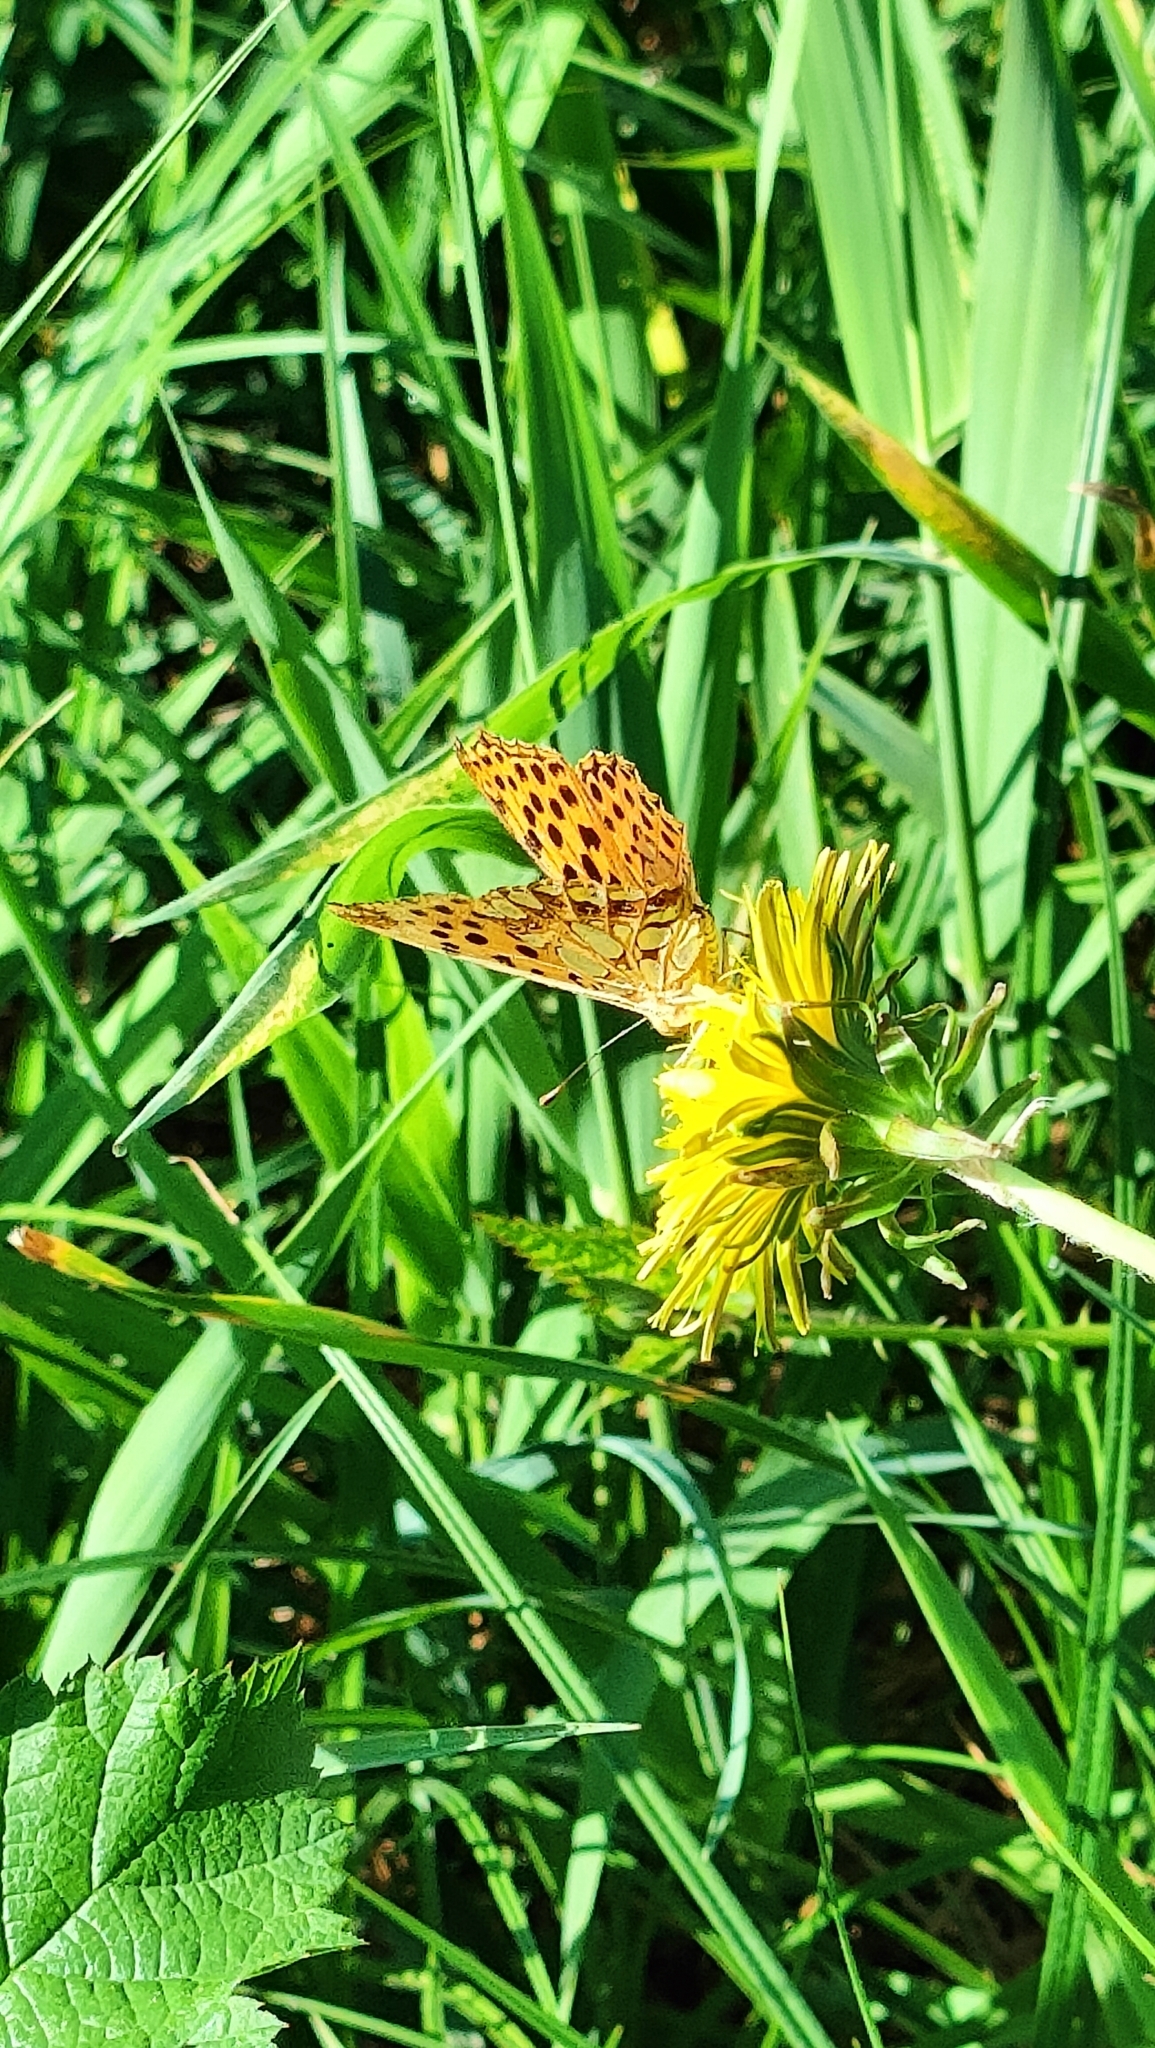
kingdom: Animalia
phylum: Arthropoda
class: Insecta
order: Lepidoptera
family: Nymphalidae
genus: Issoria
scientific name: Issoria lathonia
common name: Queen of spain fritillary
